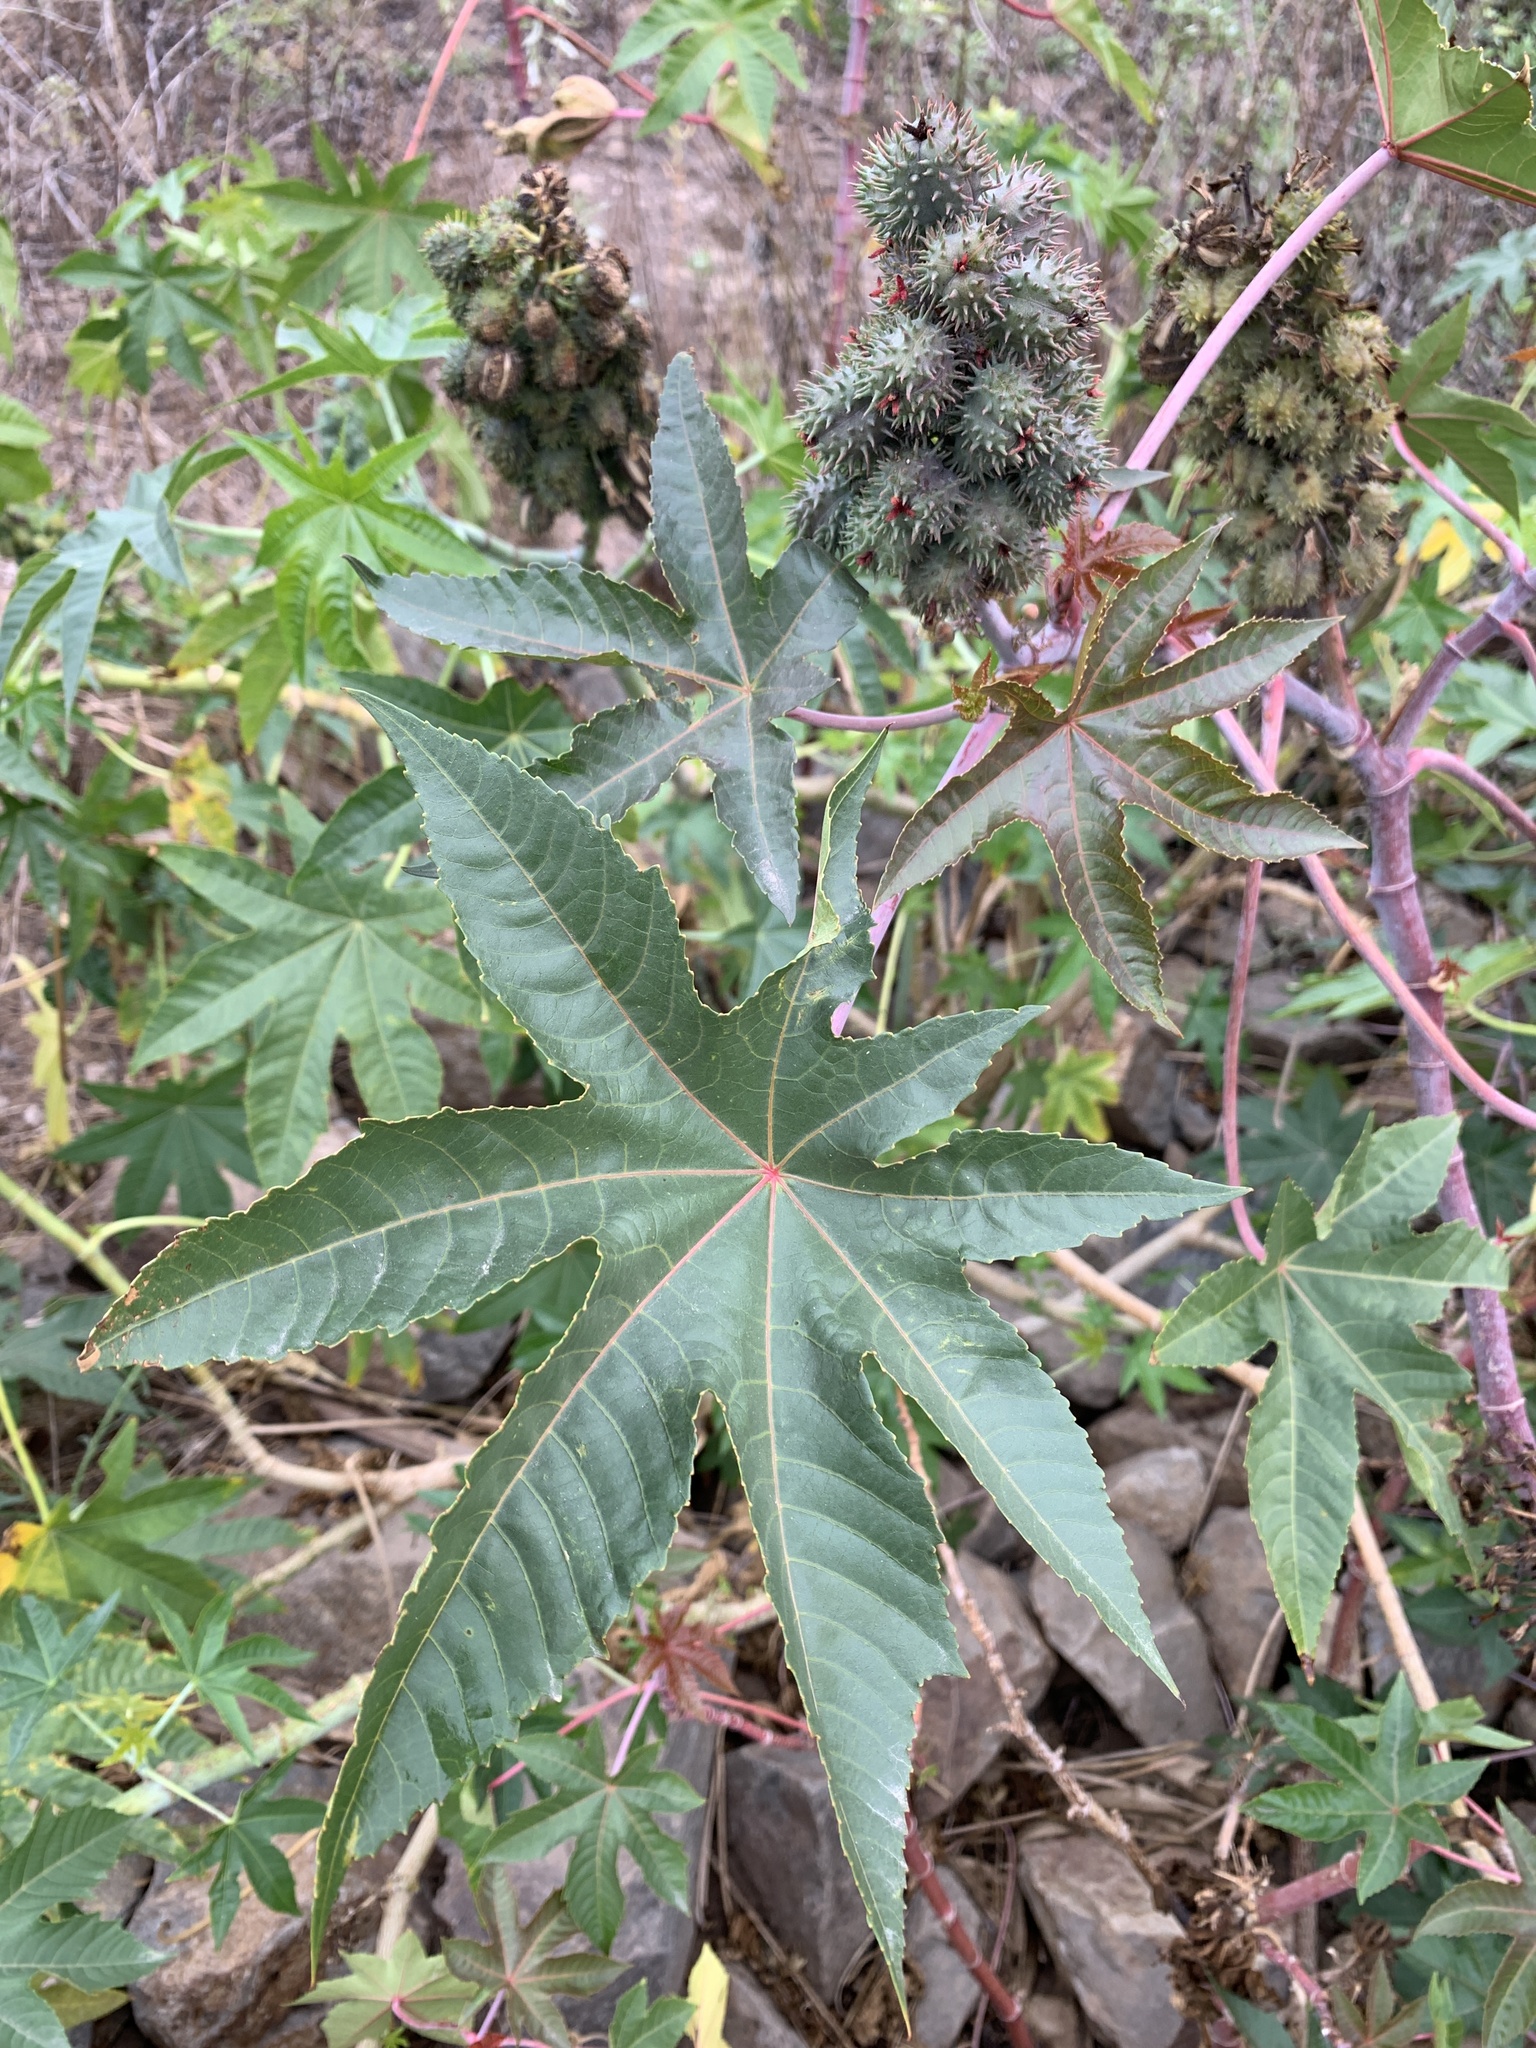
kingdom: Plantae
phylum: Tracheophyta
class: Magnoliopsida
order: Malpighiales
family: Euphorbiaceae
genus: Ricinus
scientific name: Ricinus communis
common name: Castor-oil-plant
